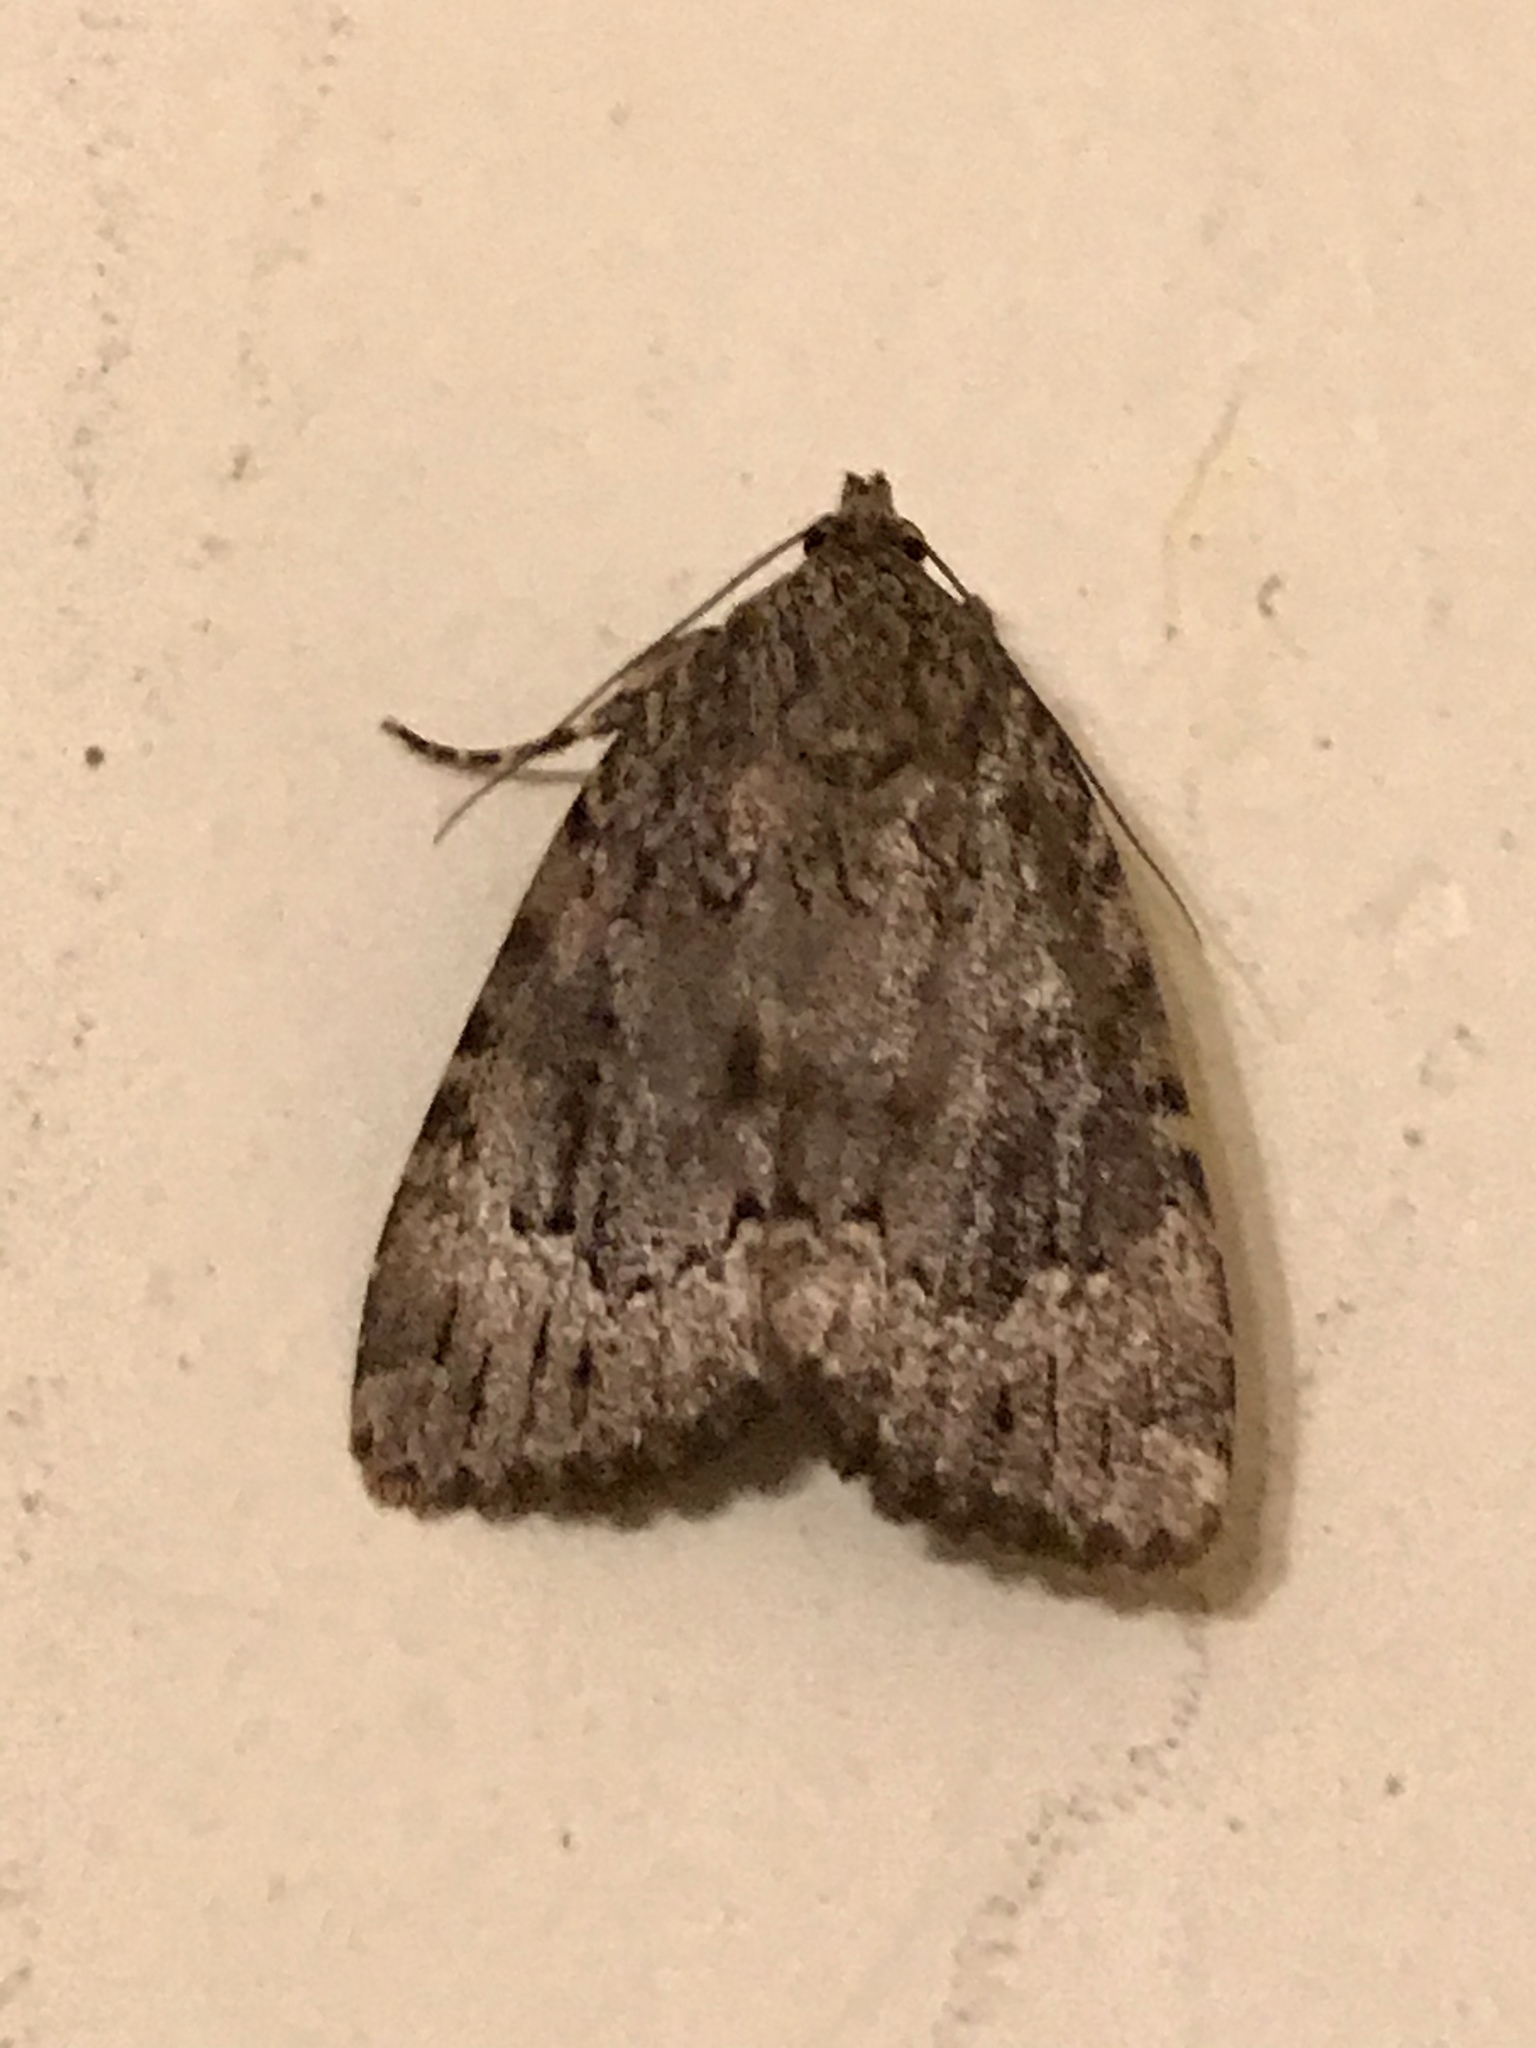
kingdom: Animalia
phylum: Arthropoda
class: Insecta
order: Lepidoptera
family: Noctuidae
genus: Amphipyra
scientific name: Amphipyra pyramidoides
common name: American copper underwing
